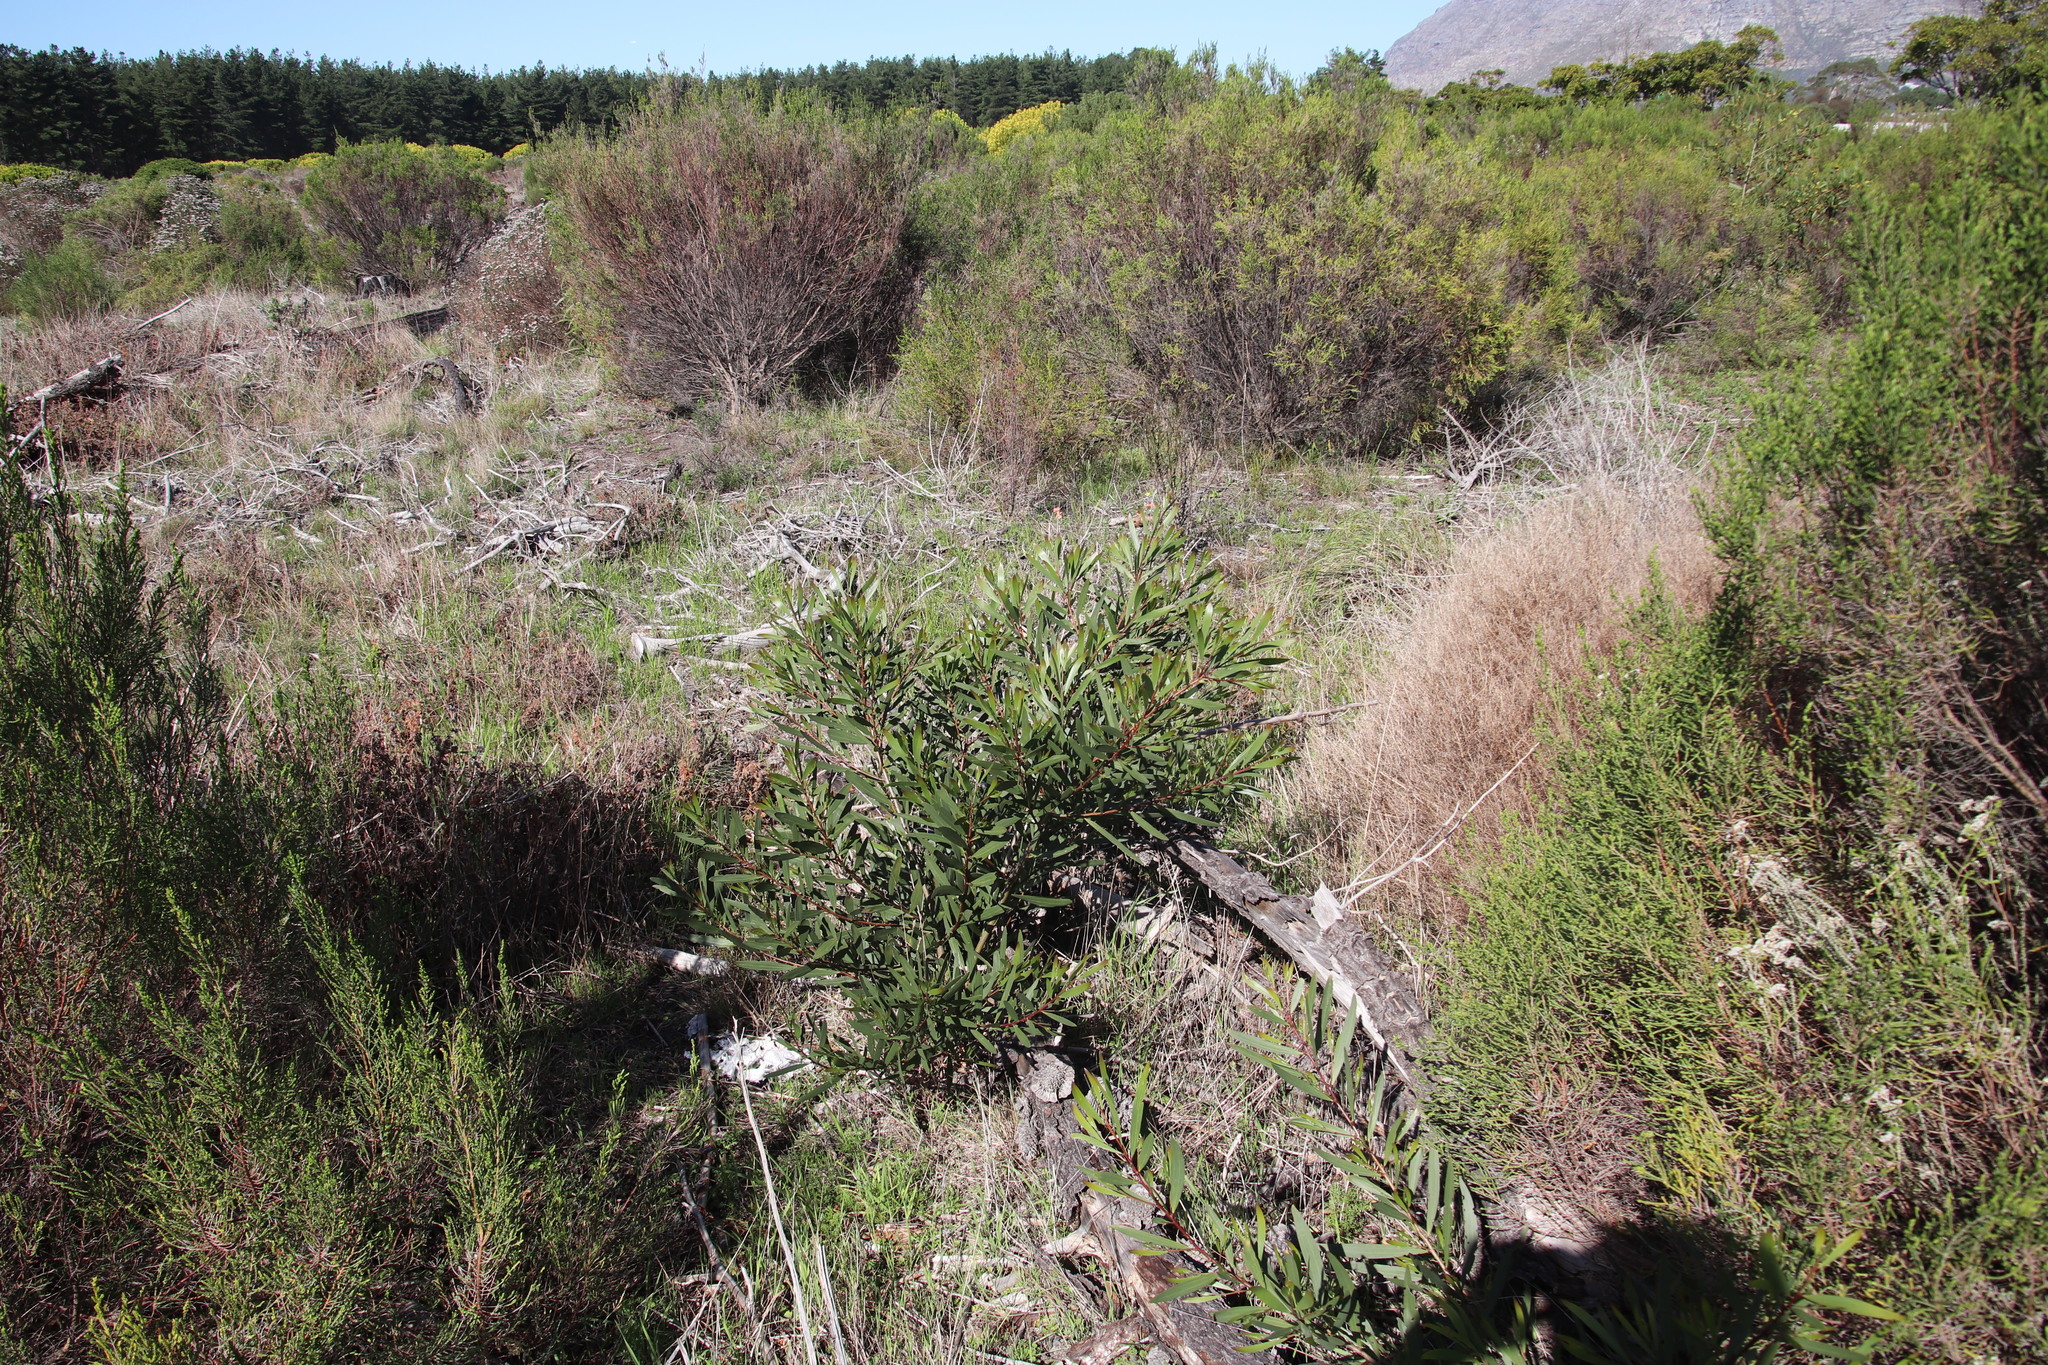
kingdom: Plantae
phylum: Tracheophyta
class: Magnoliopsida
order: Fabales
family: Fabaceae
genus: Acacia
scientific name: Acacia longifolia
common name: Sydney golden wattle
